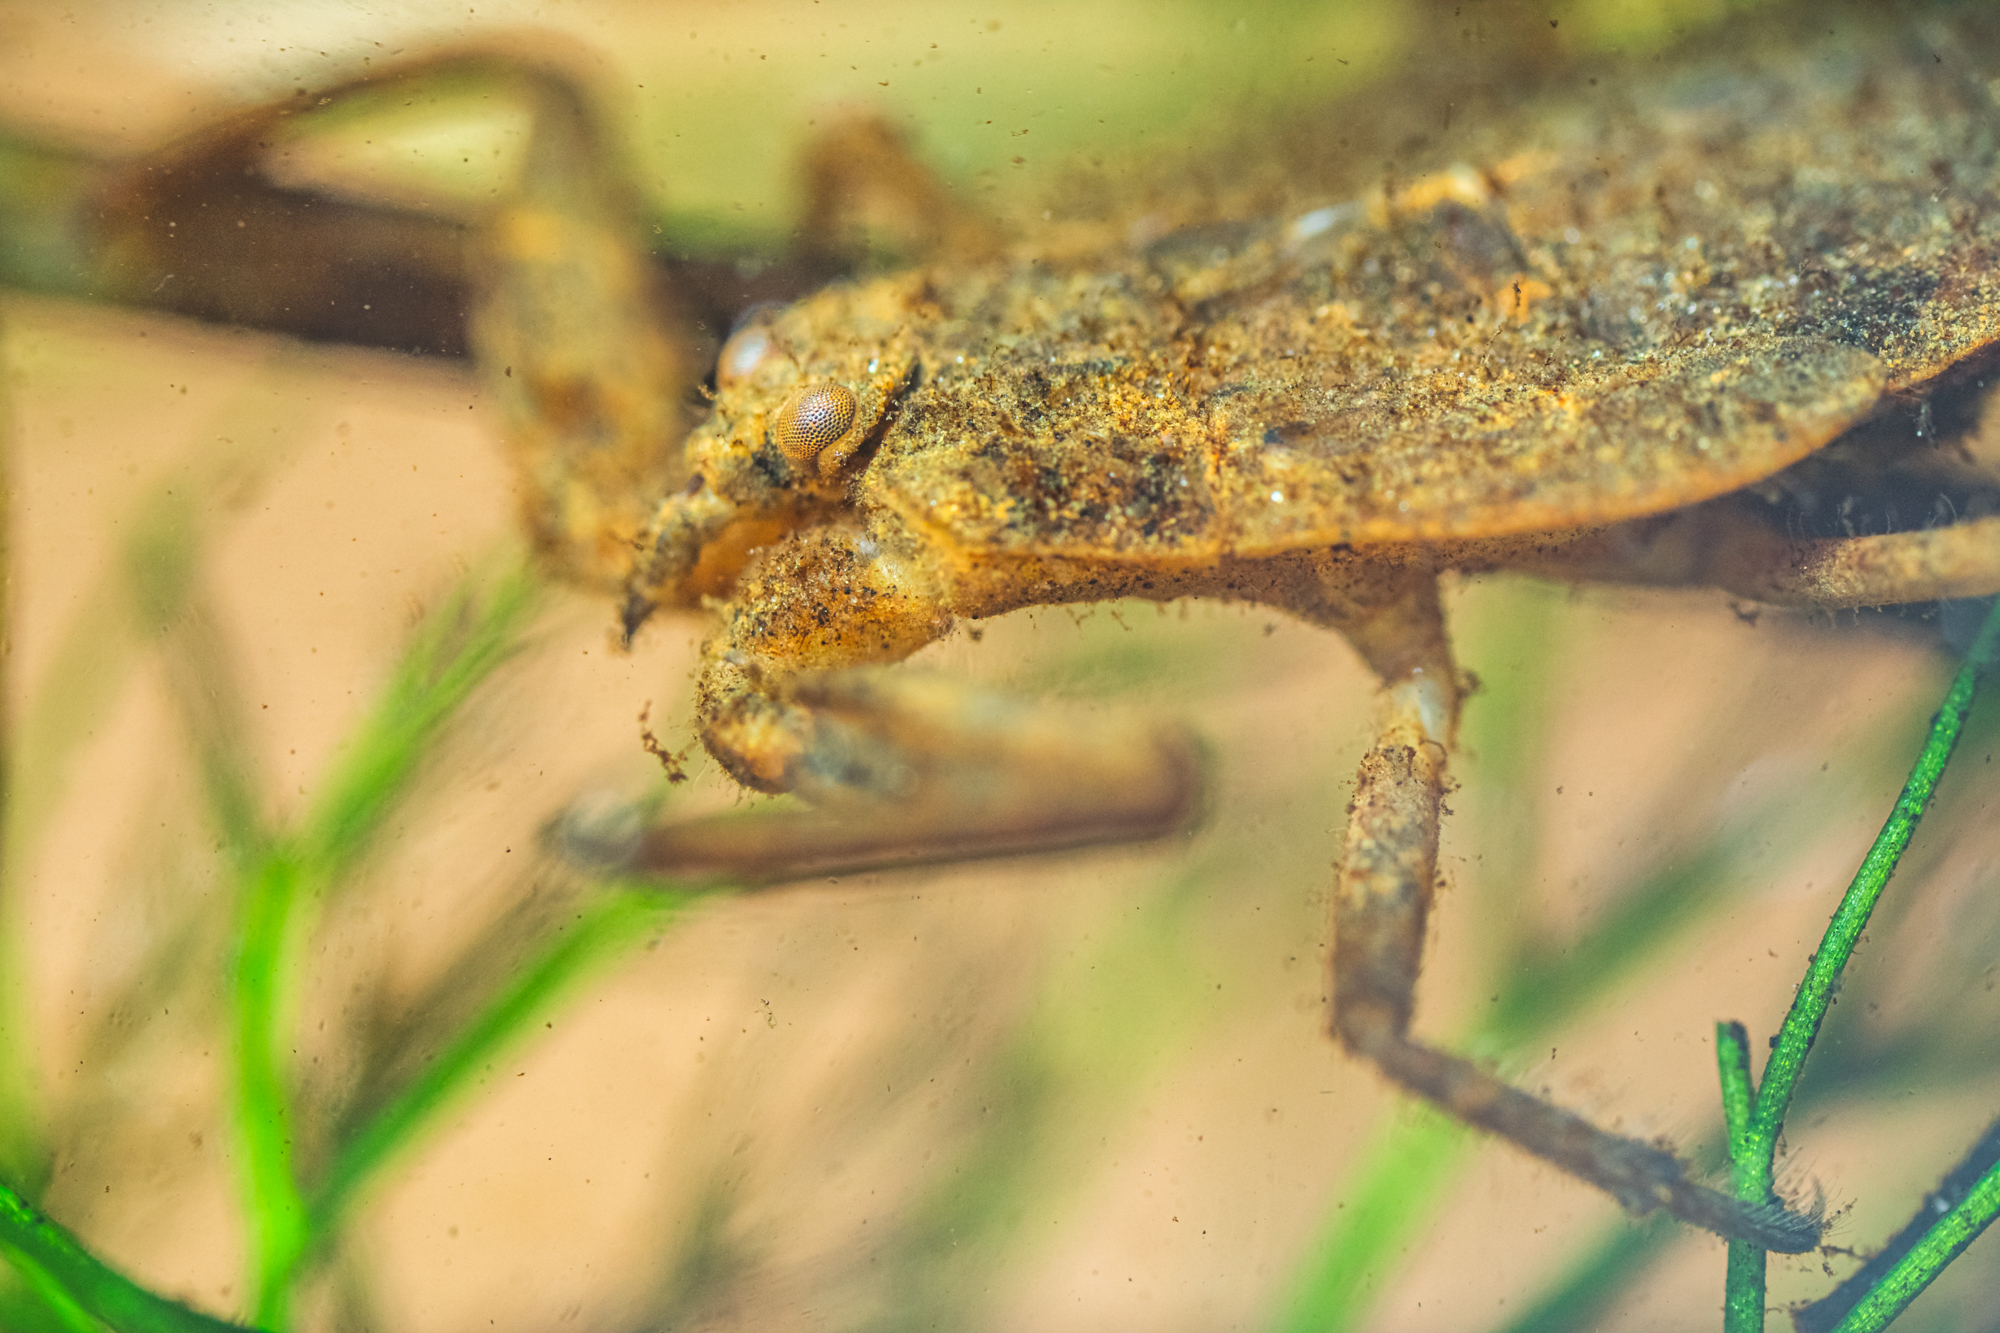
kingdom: Animalia
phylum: Arthropoda
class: Insecta
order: Hemiptera
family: Nepidae
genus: Nepa
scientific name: Nepa cinerea
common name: Water scorpion
